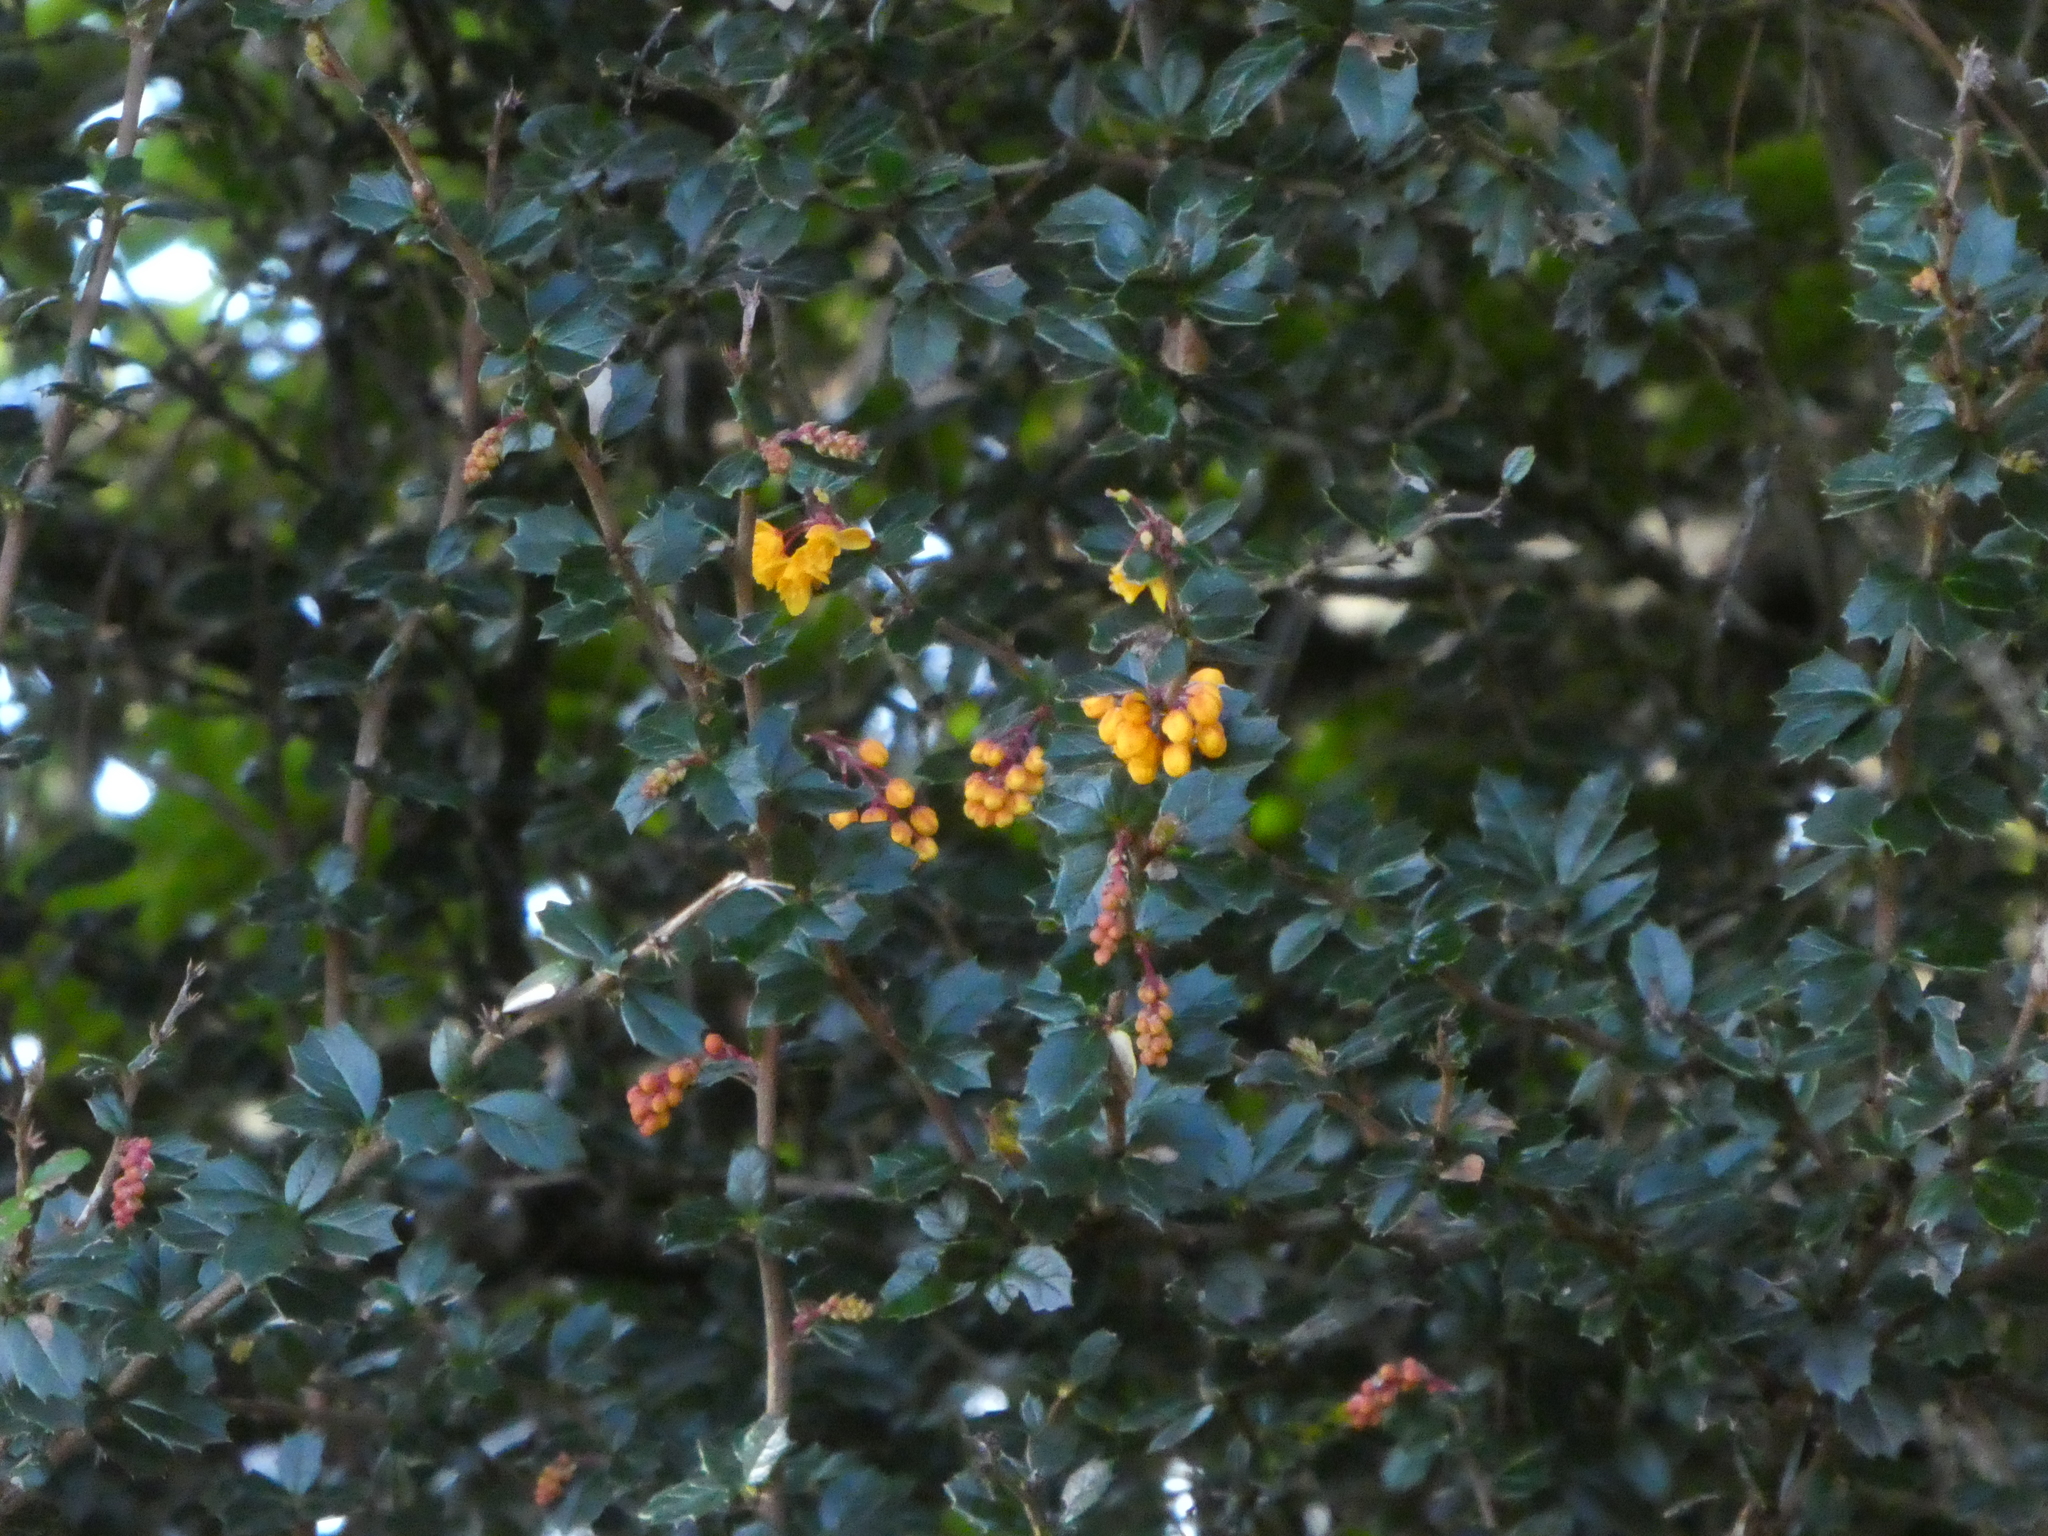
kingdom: Plantae
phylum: Tracheophyta
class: Magnoliopsida
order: Ranunculales
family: Berberidaceae
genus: Berberis
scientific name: Berberis darwinii
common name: Darwin's barberry
